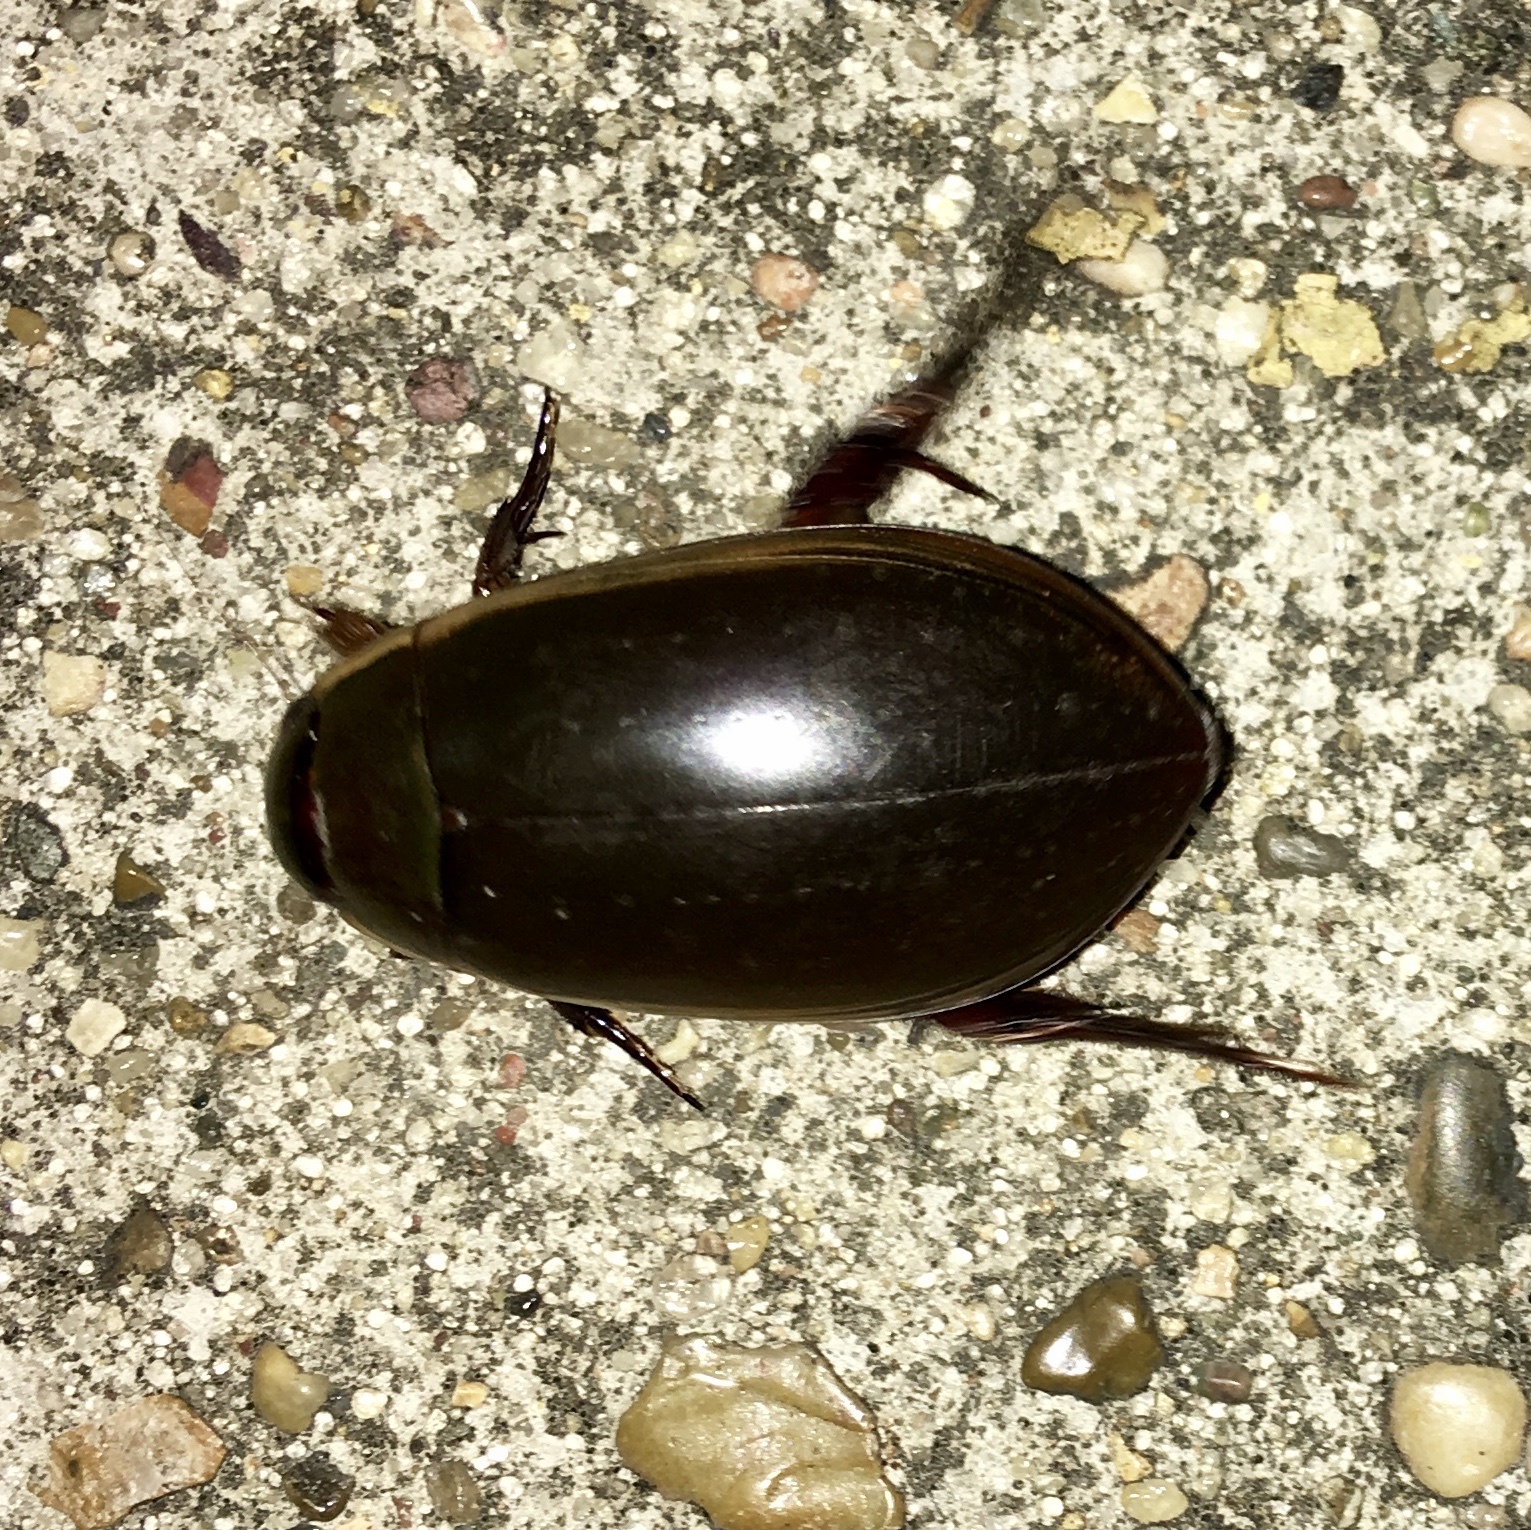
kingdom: Animalia
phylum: Arthropoda
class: Insecta
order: Coleoptera
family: Dytiscidae
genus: Cybister
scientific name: Cybister fimbriolatus
